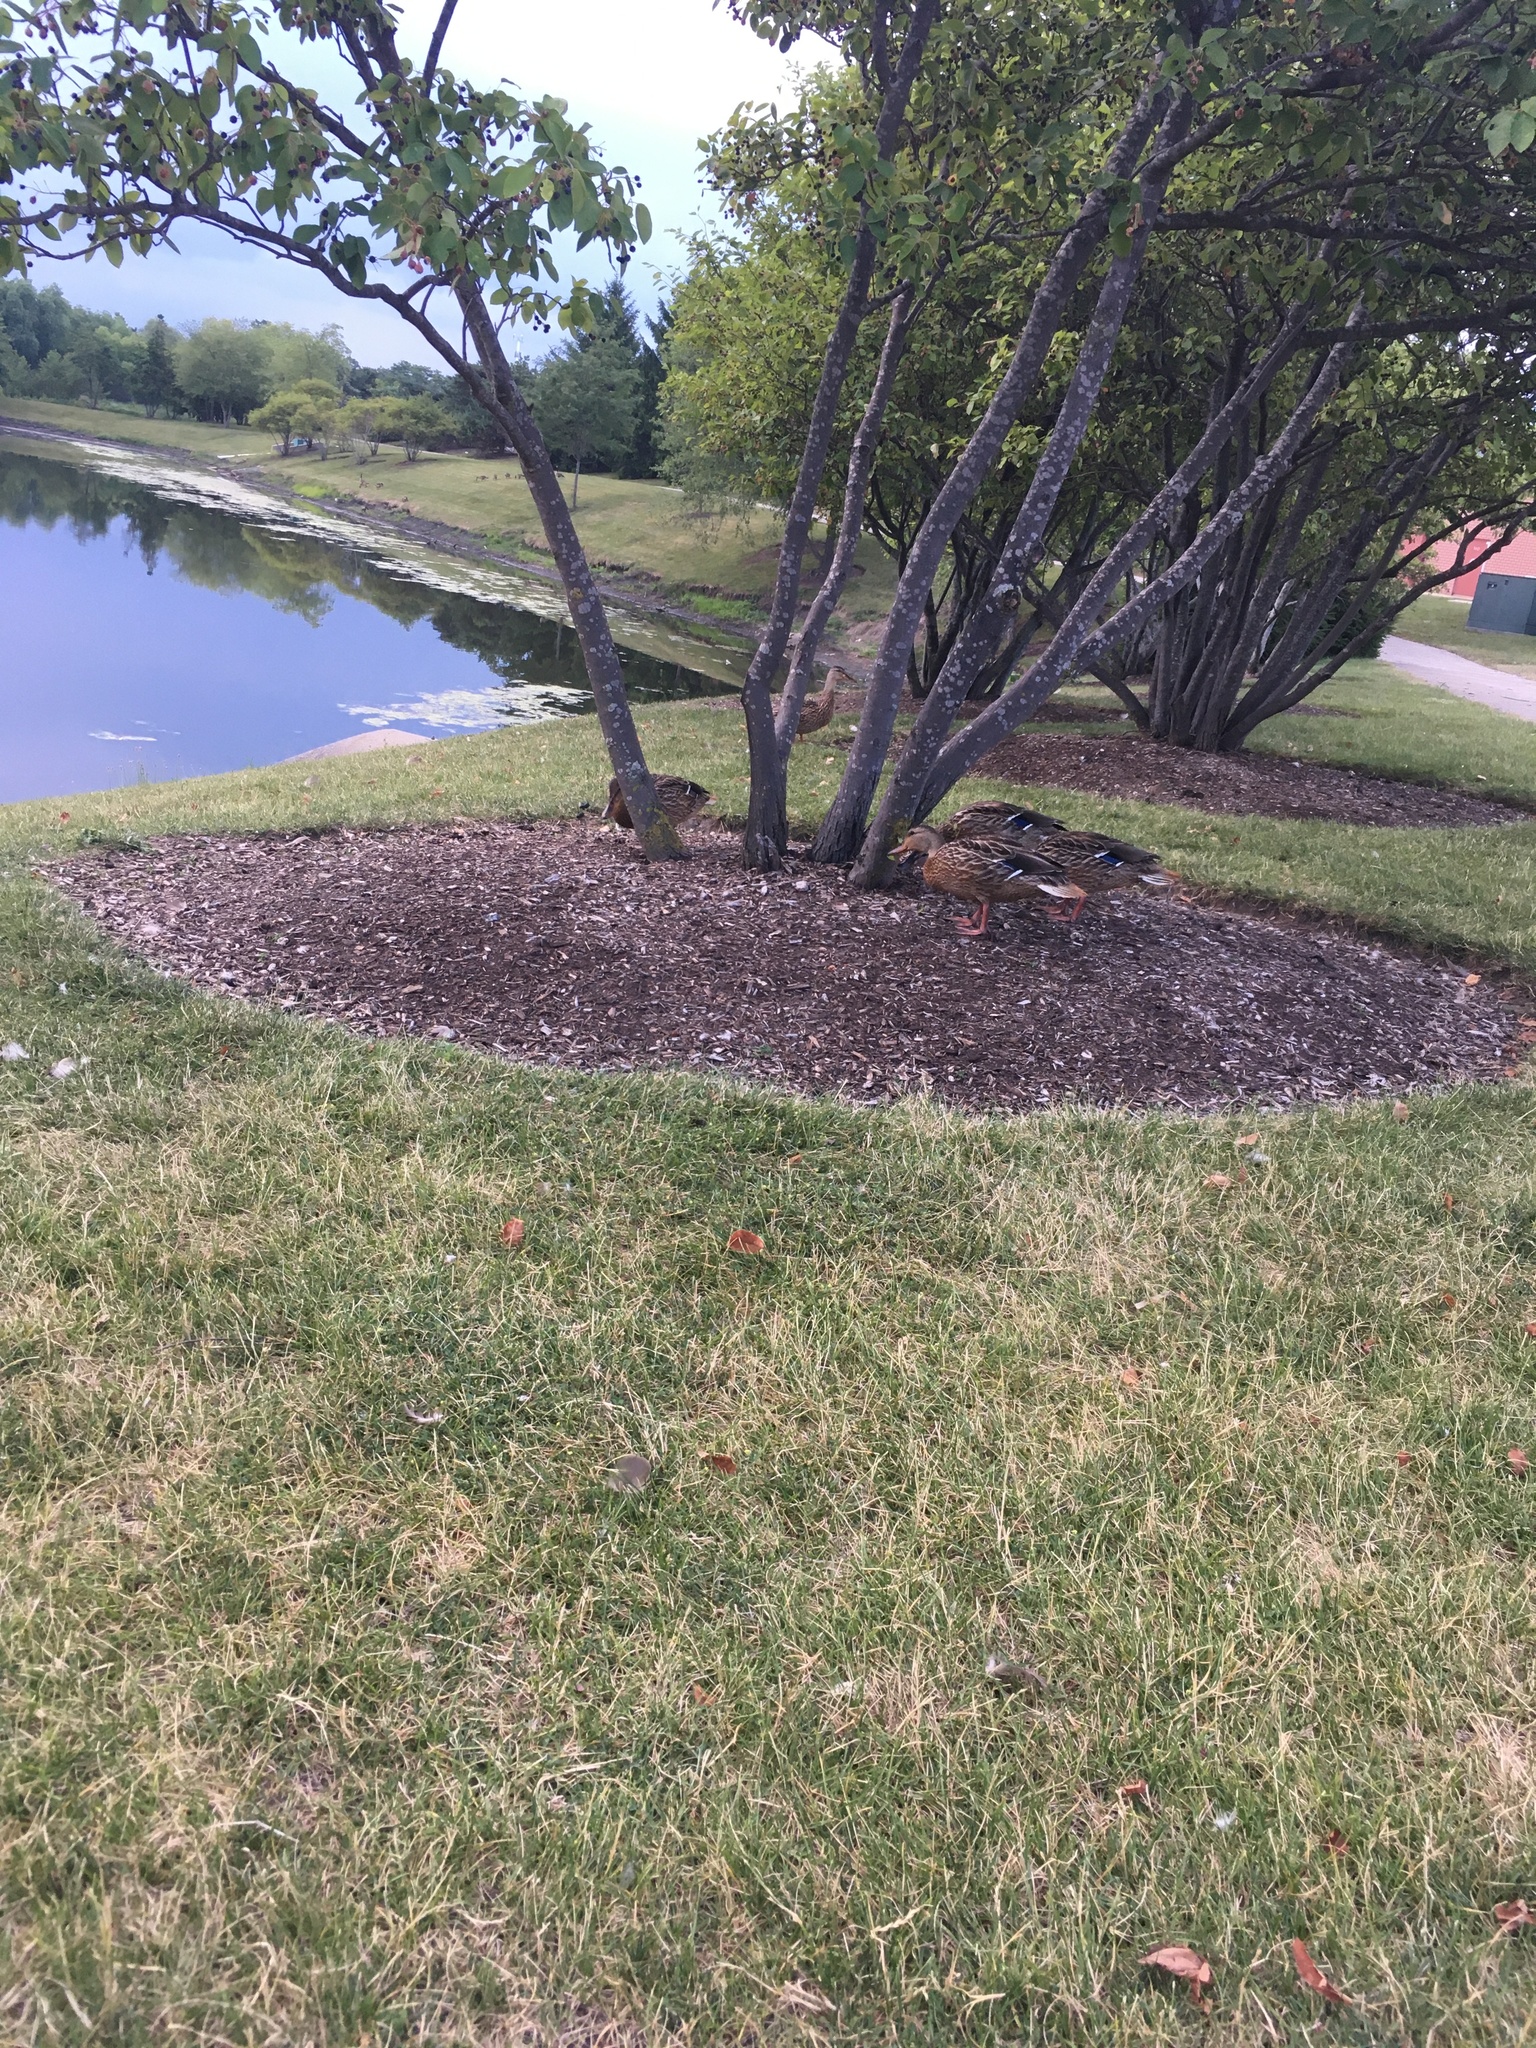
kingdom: Animalia
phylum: Chordata
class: Aves
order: Anseriformes
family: Anatidae
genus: Anas
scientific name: Anas platyrhynchos
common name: Mallard
